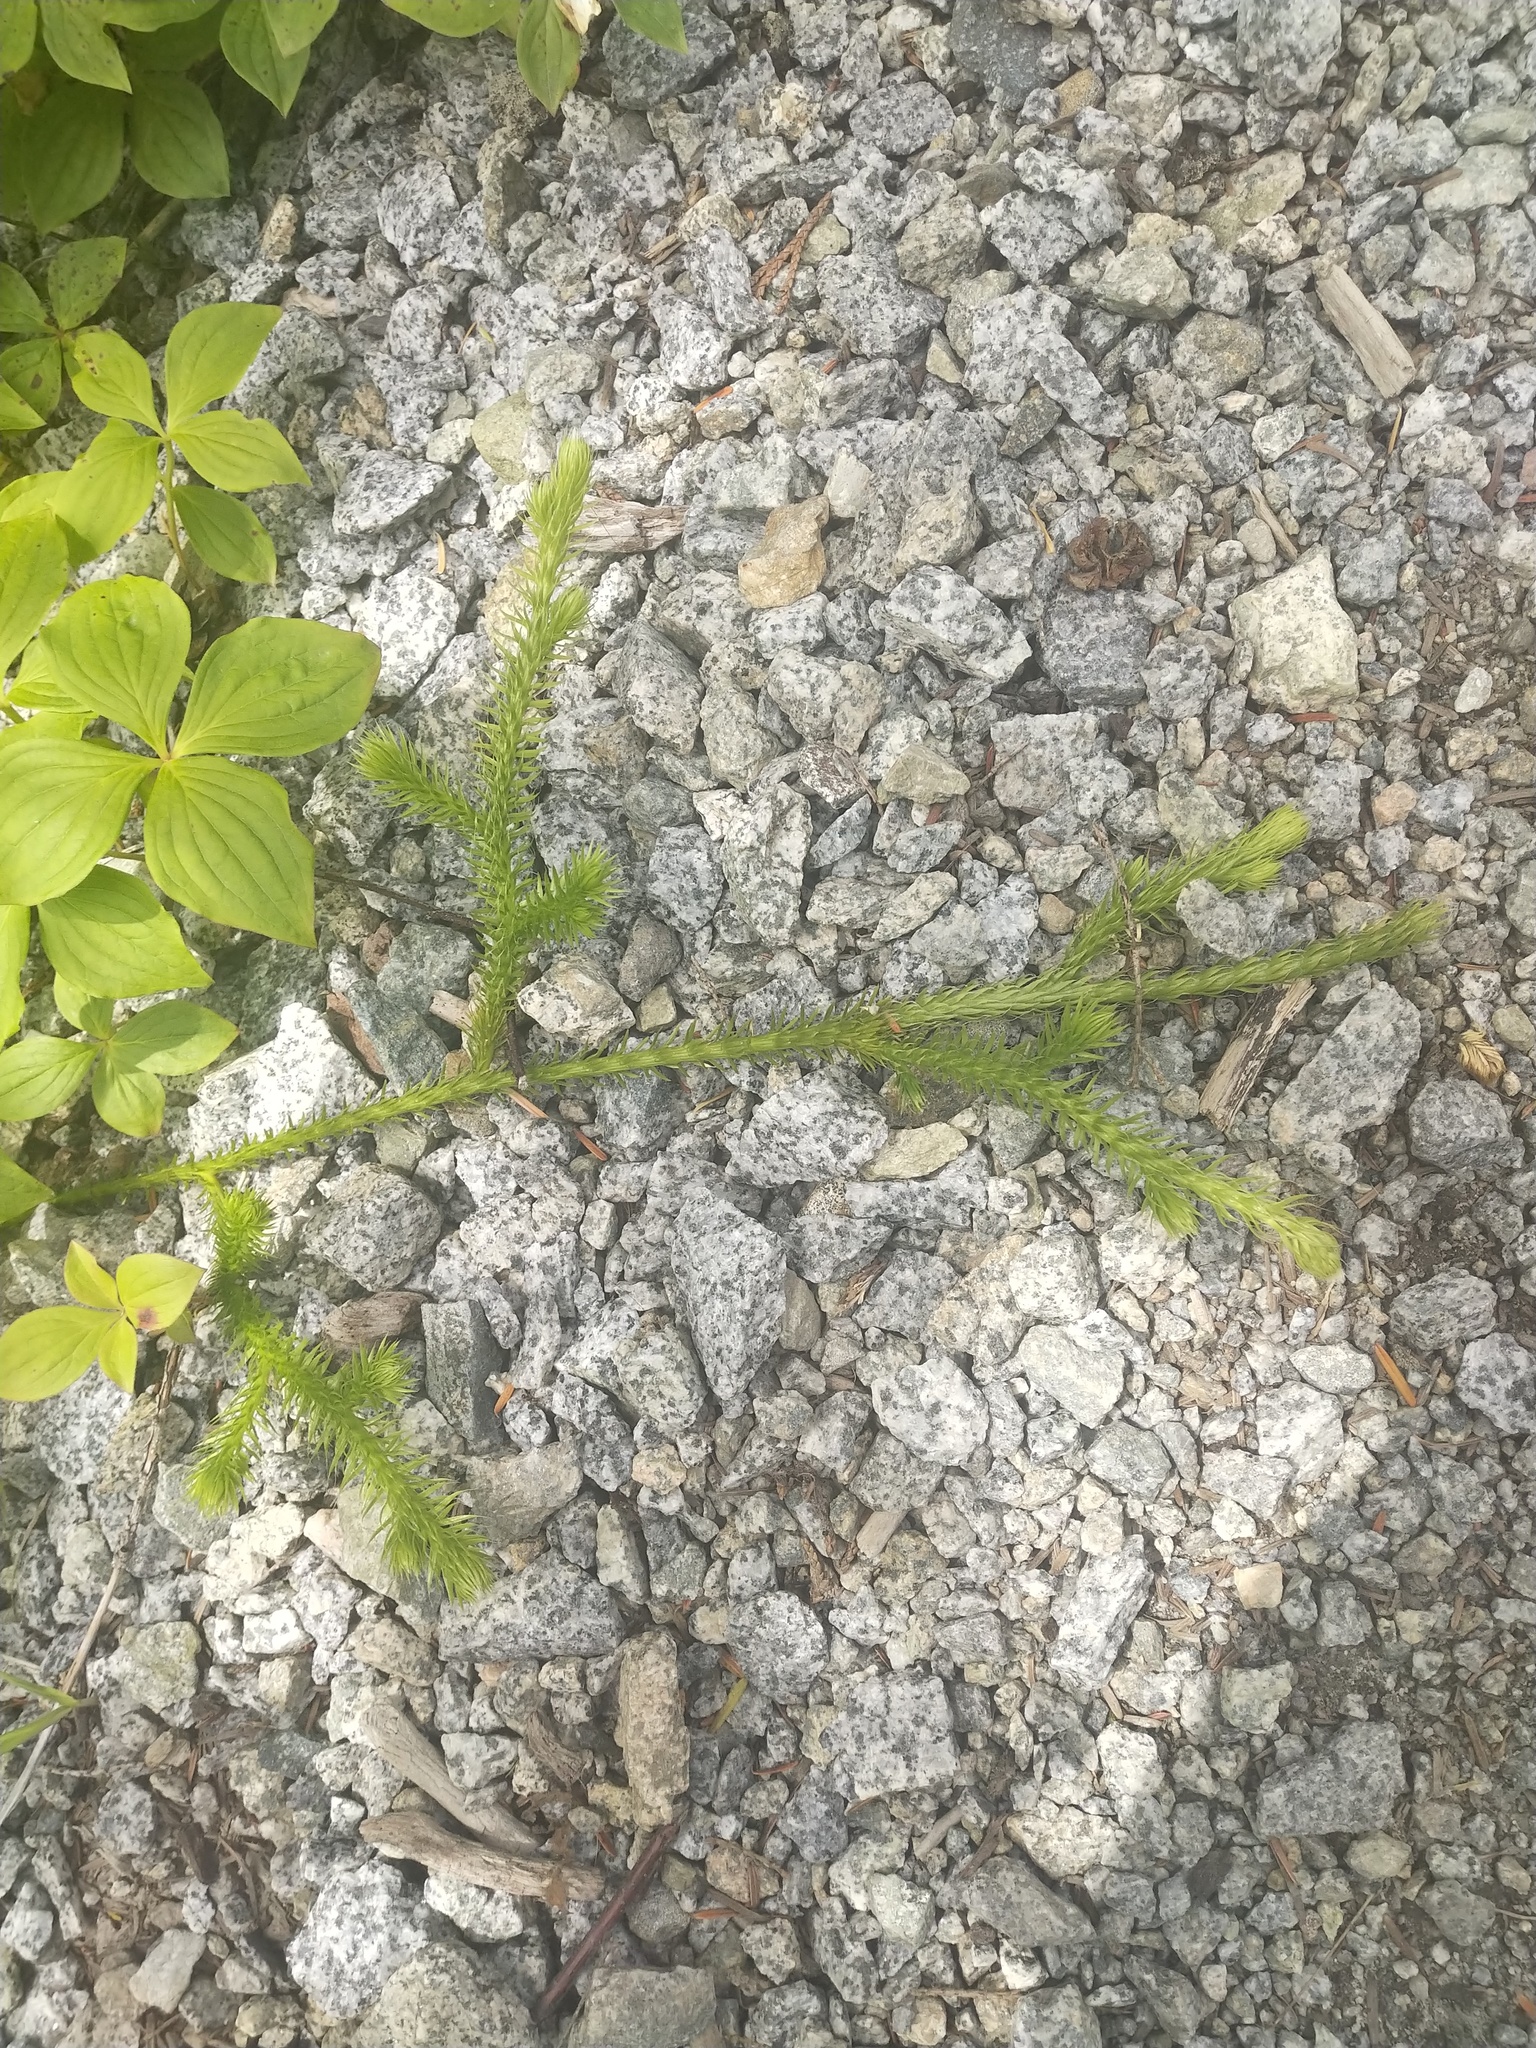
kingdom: Plantae
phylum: Tracheophyta
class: Lycopodiopsida
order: Lycopodiales
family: Lycopodiaceae
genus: Lycopodium
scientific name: Lycopodium clavatum
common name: Stag's-horn clubmoss
